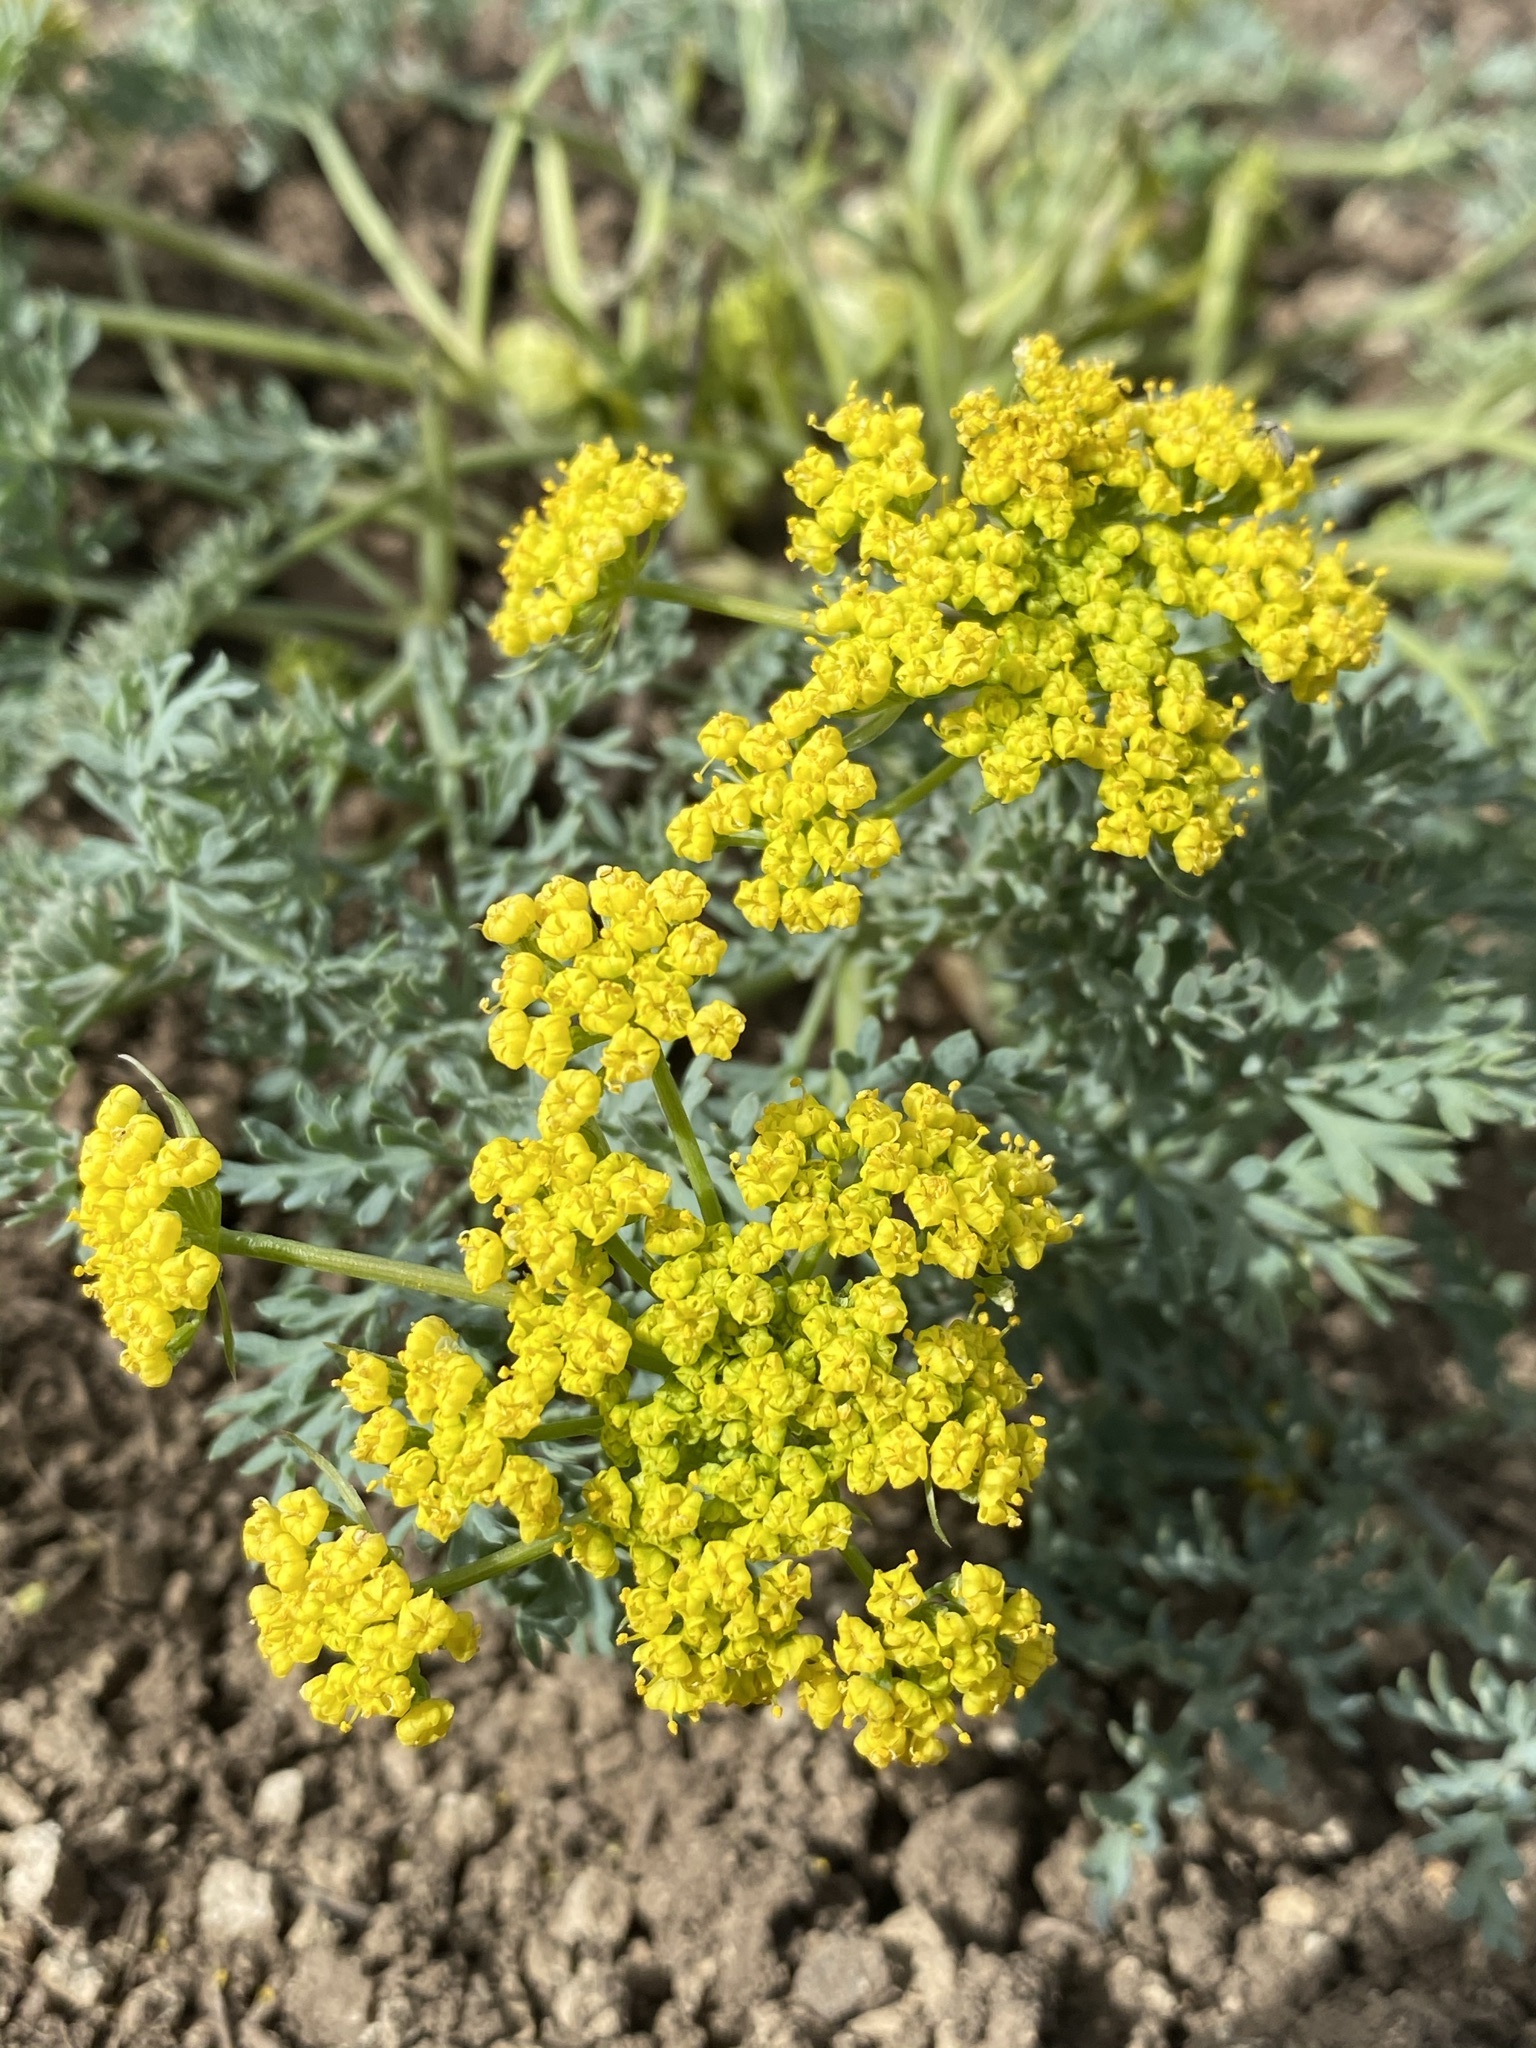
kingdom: Plantae
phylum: Tracheophyta
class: Magnoliopsida
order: Apiales
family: Apiaceae
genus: Lomatium
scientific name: Lomatium donnellii
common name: Donnell's biscuitroot
